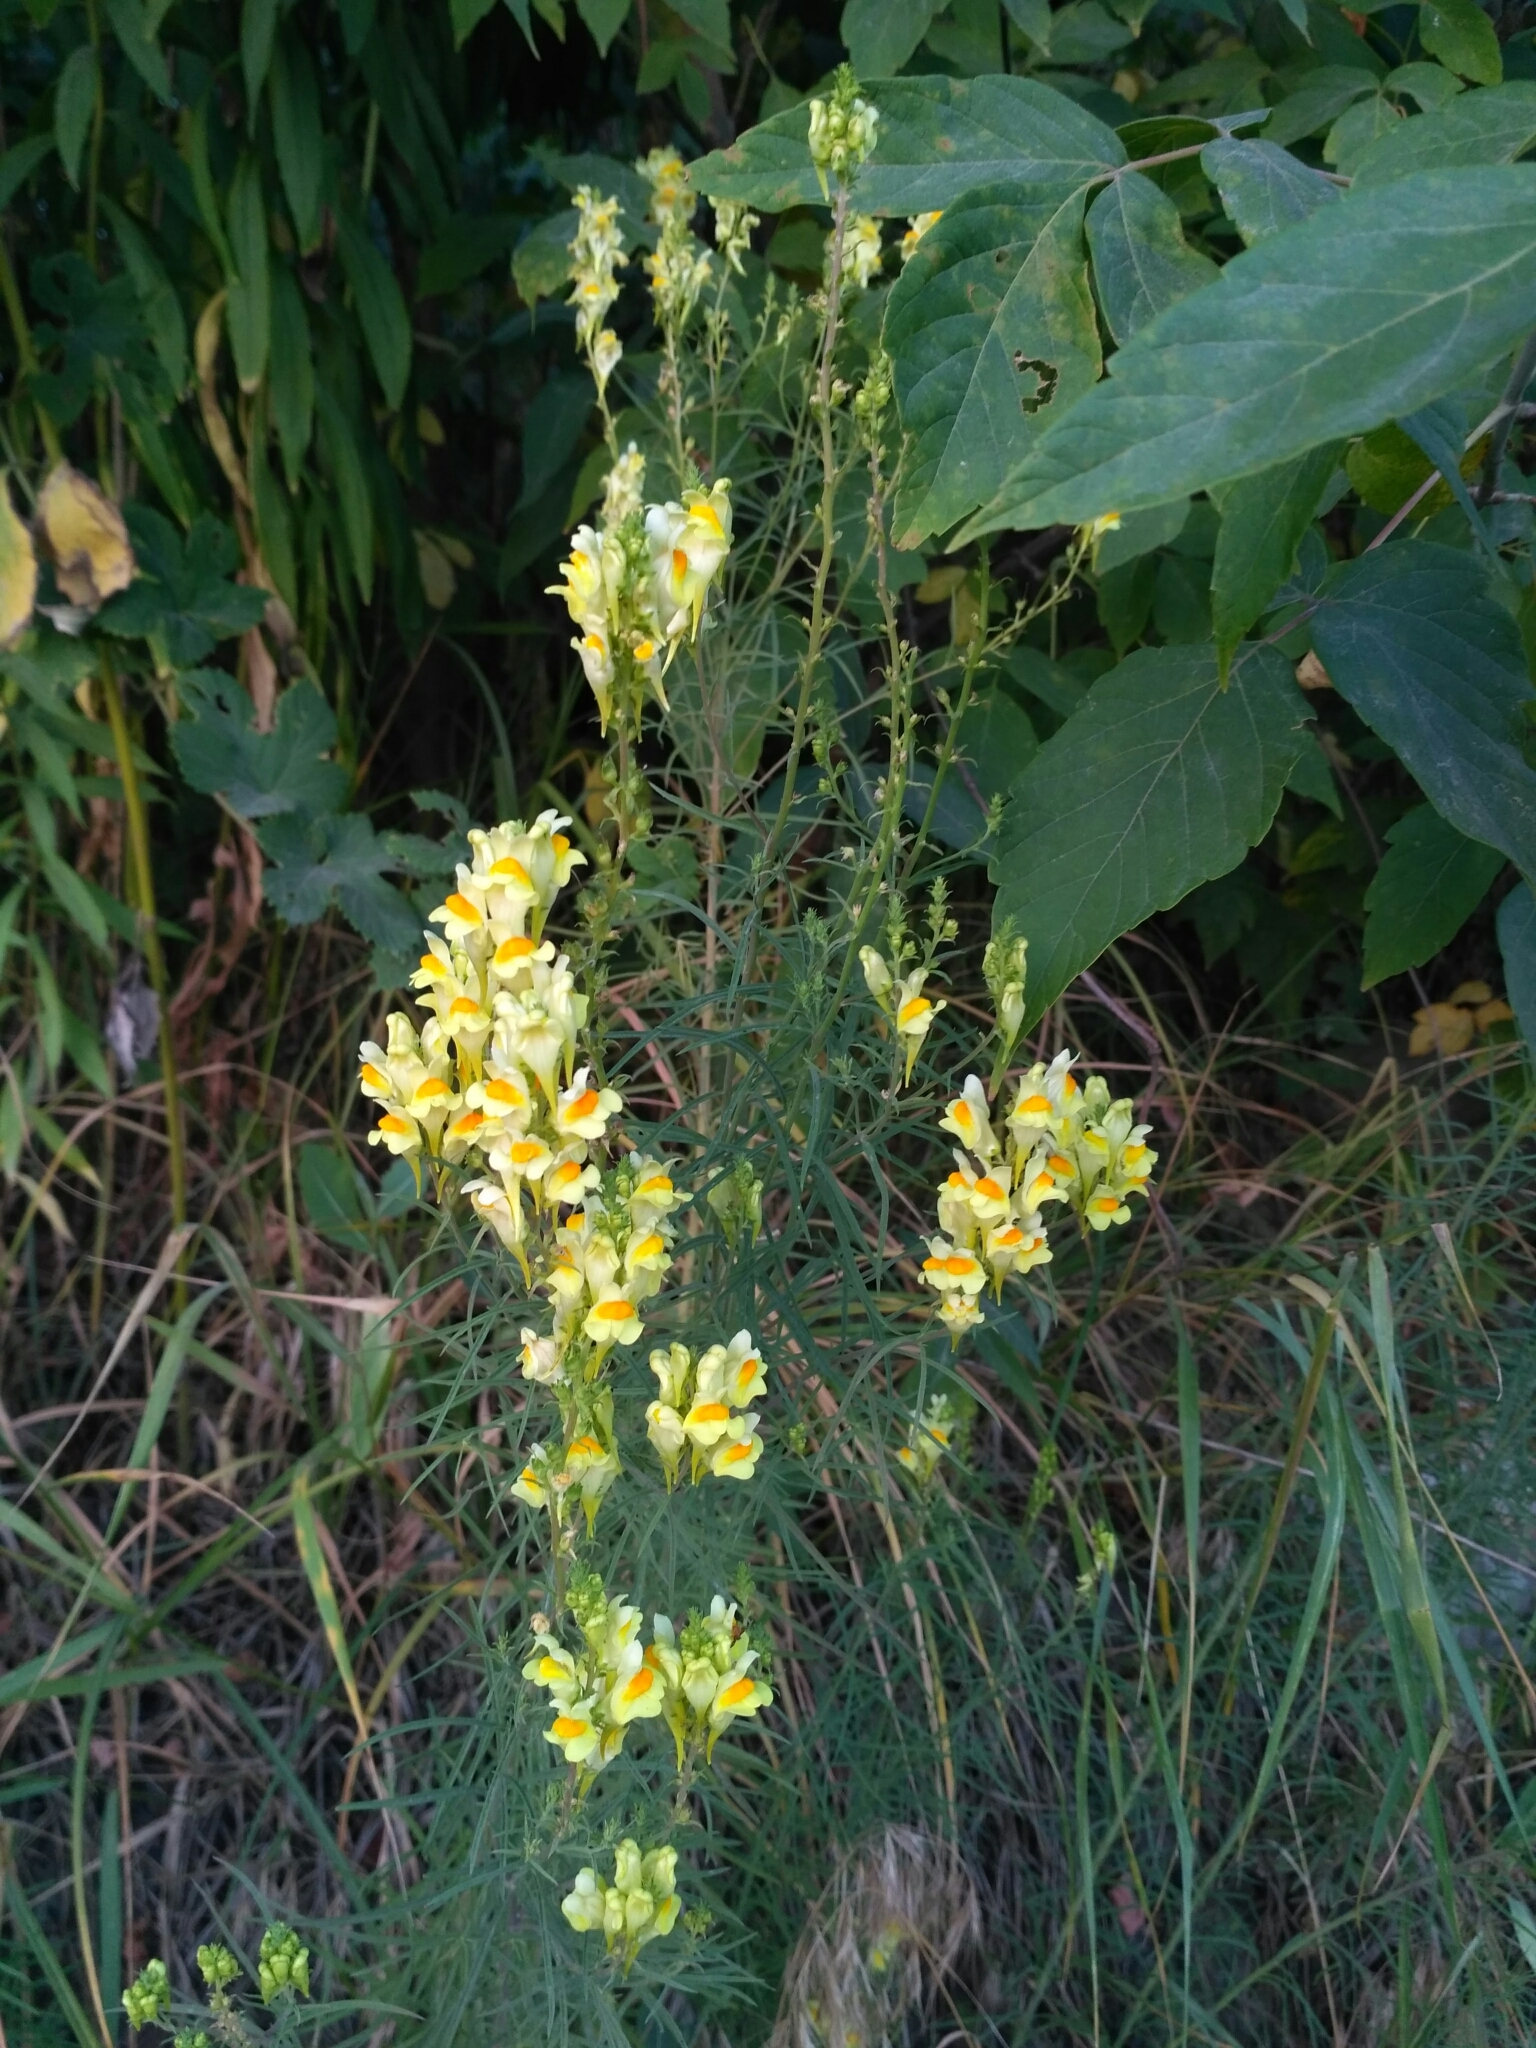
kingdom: Plantae
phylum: Tracheophyta
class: Magnoliopsida
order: Lamiales
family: Plantaginaceae
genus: Linaria
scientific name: Linaria vulgaris
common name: Butter and eggs
